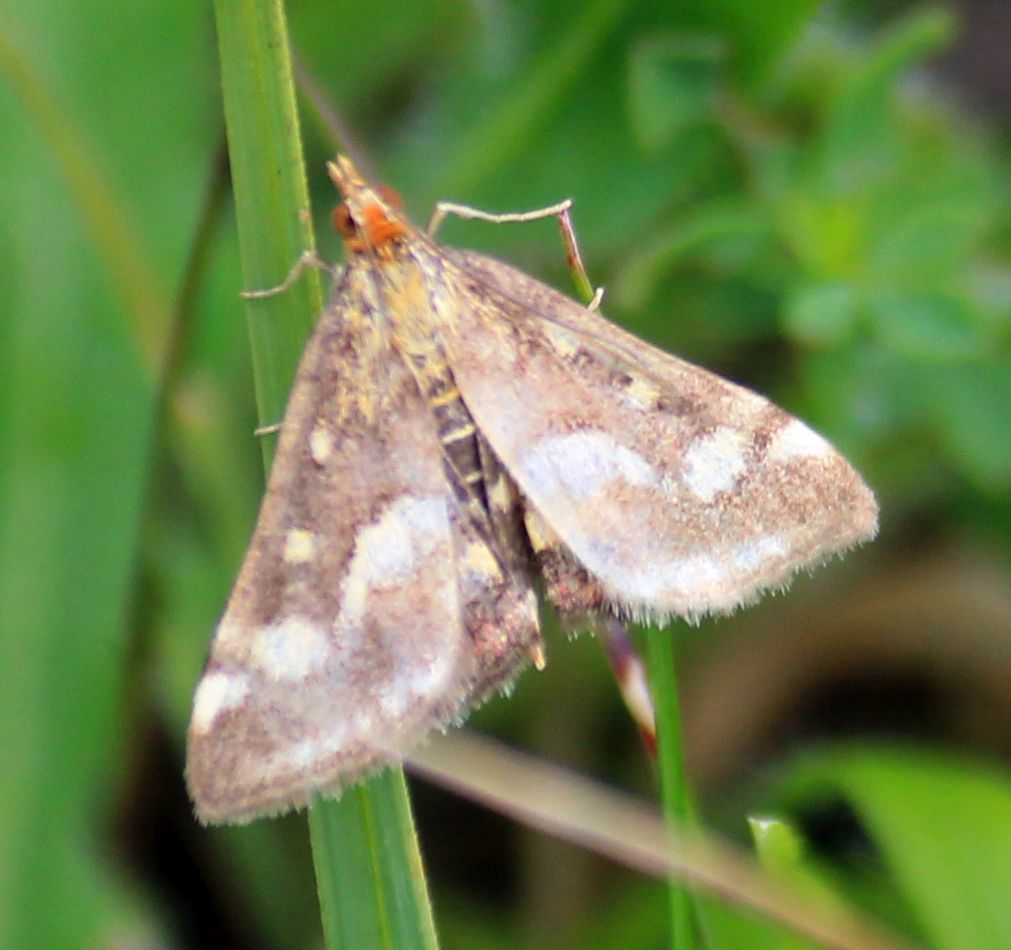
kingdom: Animalia
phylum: Arthropoda
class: Insecta
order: Lepidoptera
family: Crambidae
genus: Pyrausta
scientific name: Pyrausta purpuralis
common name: Common purple & gold
